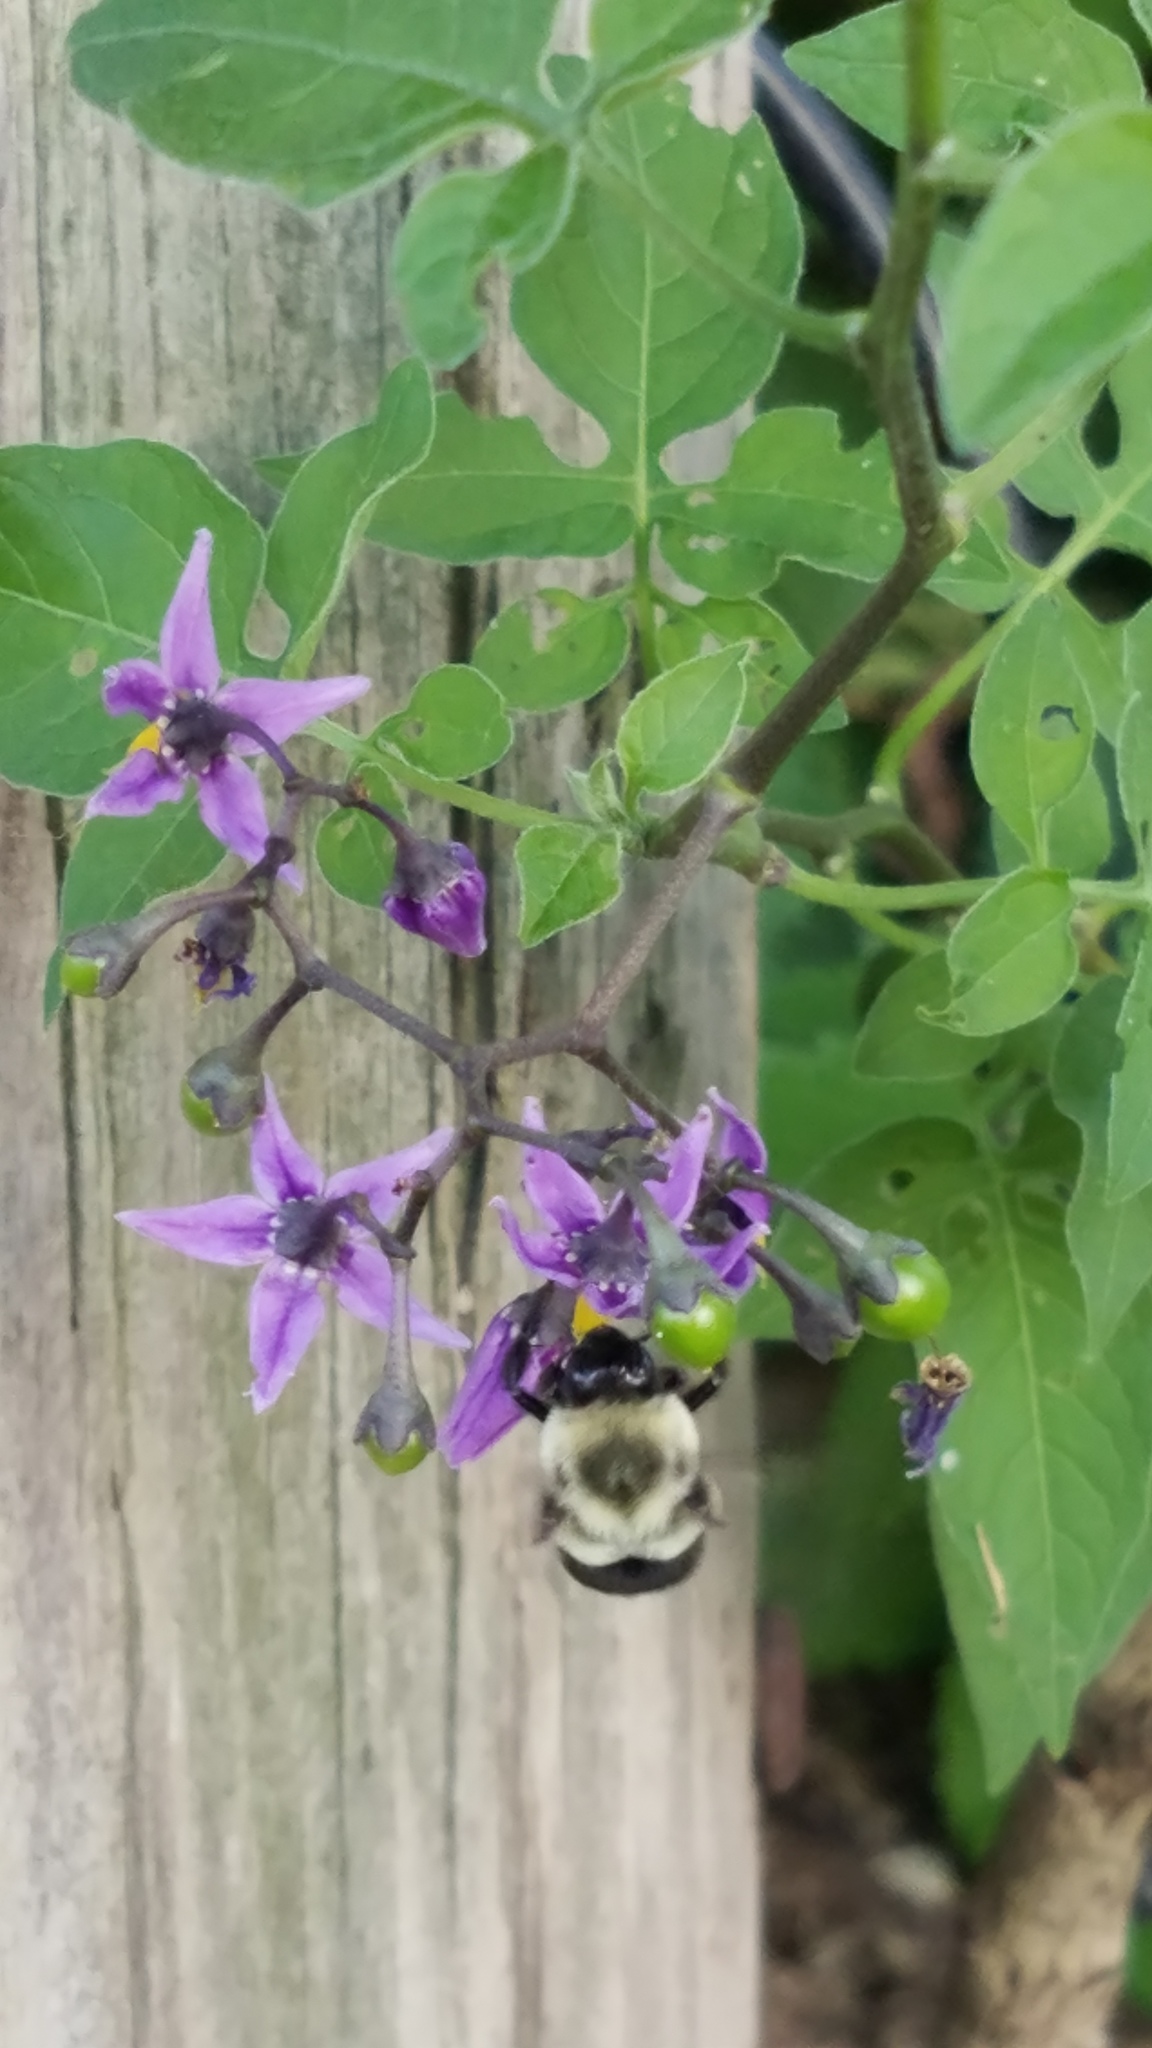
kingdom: Animalia
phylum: Arthropoda
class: Insecta
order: Hymenoptera
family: Apidae
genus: Bombus
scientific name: Bombus impatiens
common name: Common eastern bumble bee
